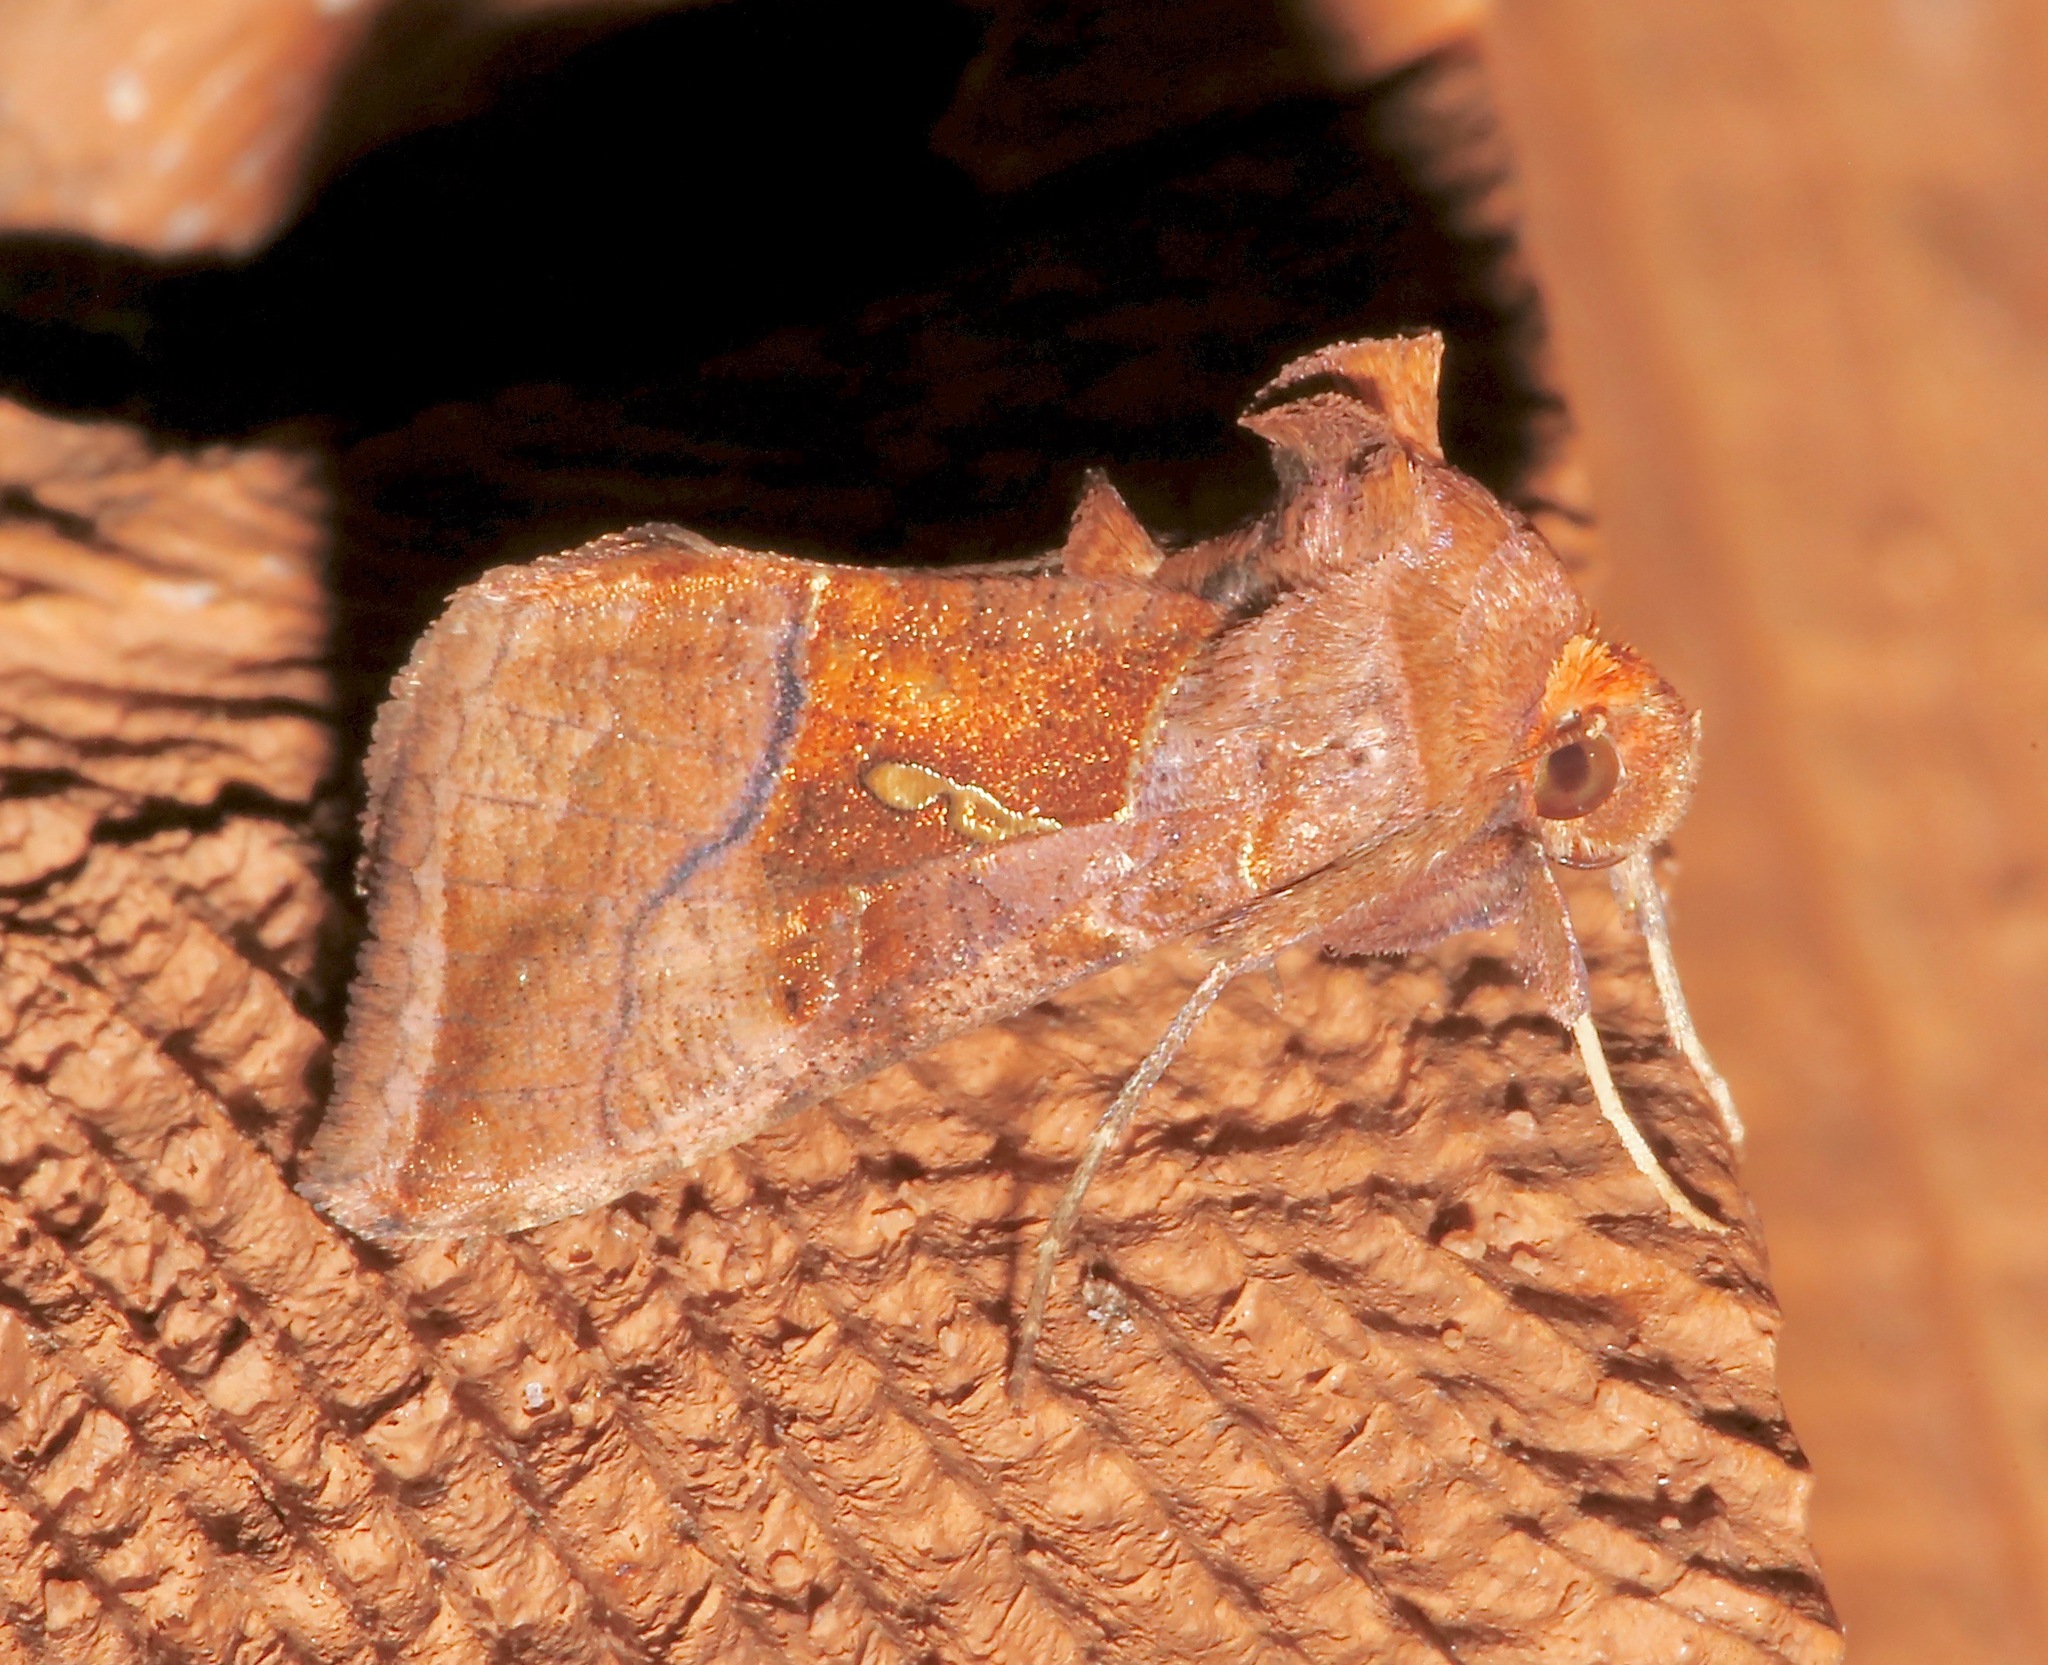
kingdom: Animalia
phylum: Arthropoda
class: Insecta
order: Lepidoptera
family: Noctuidae
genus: Enigmogramma
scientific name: Enigmogramma basigera
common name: Pink-washed looper moth
